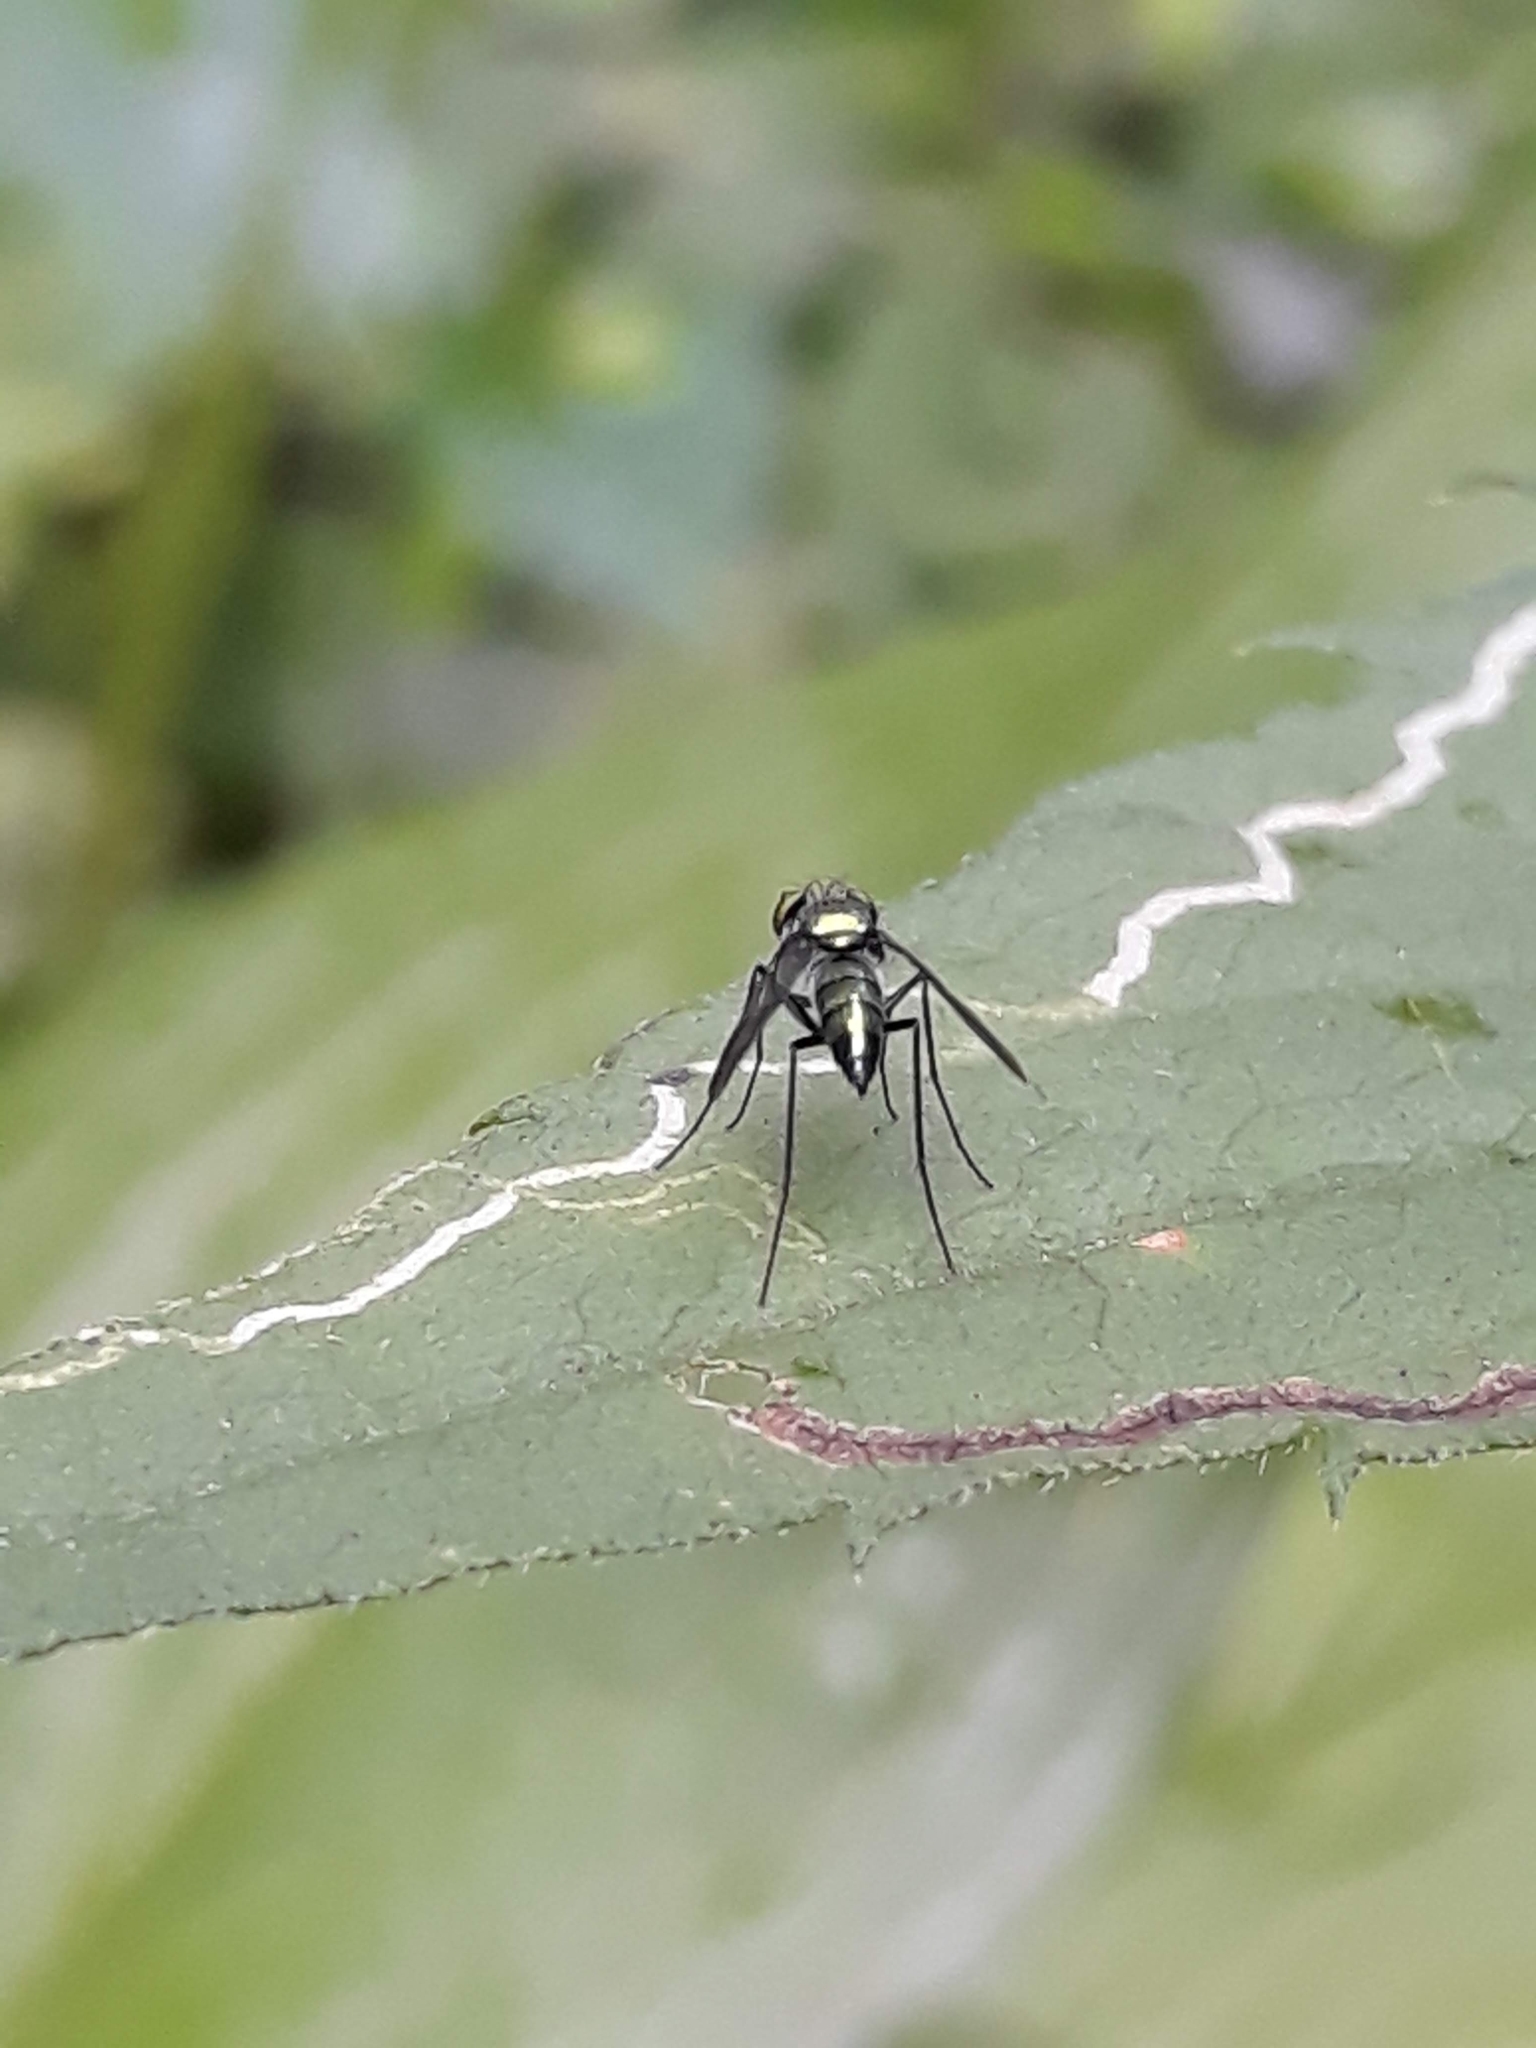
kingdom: Animalia
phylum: Arthropoda
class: Insecta
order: Diptera
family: Dolichopodidae
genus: Condylostylus
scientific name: Condylostylus patibulatus
